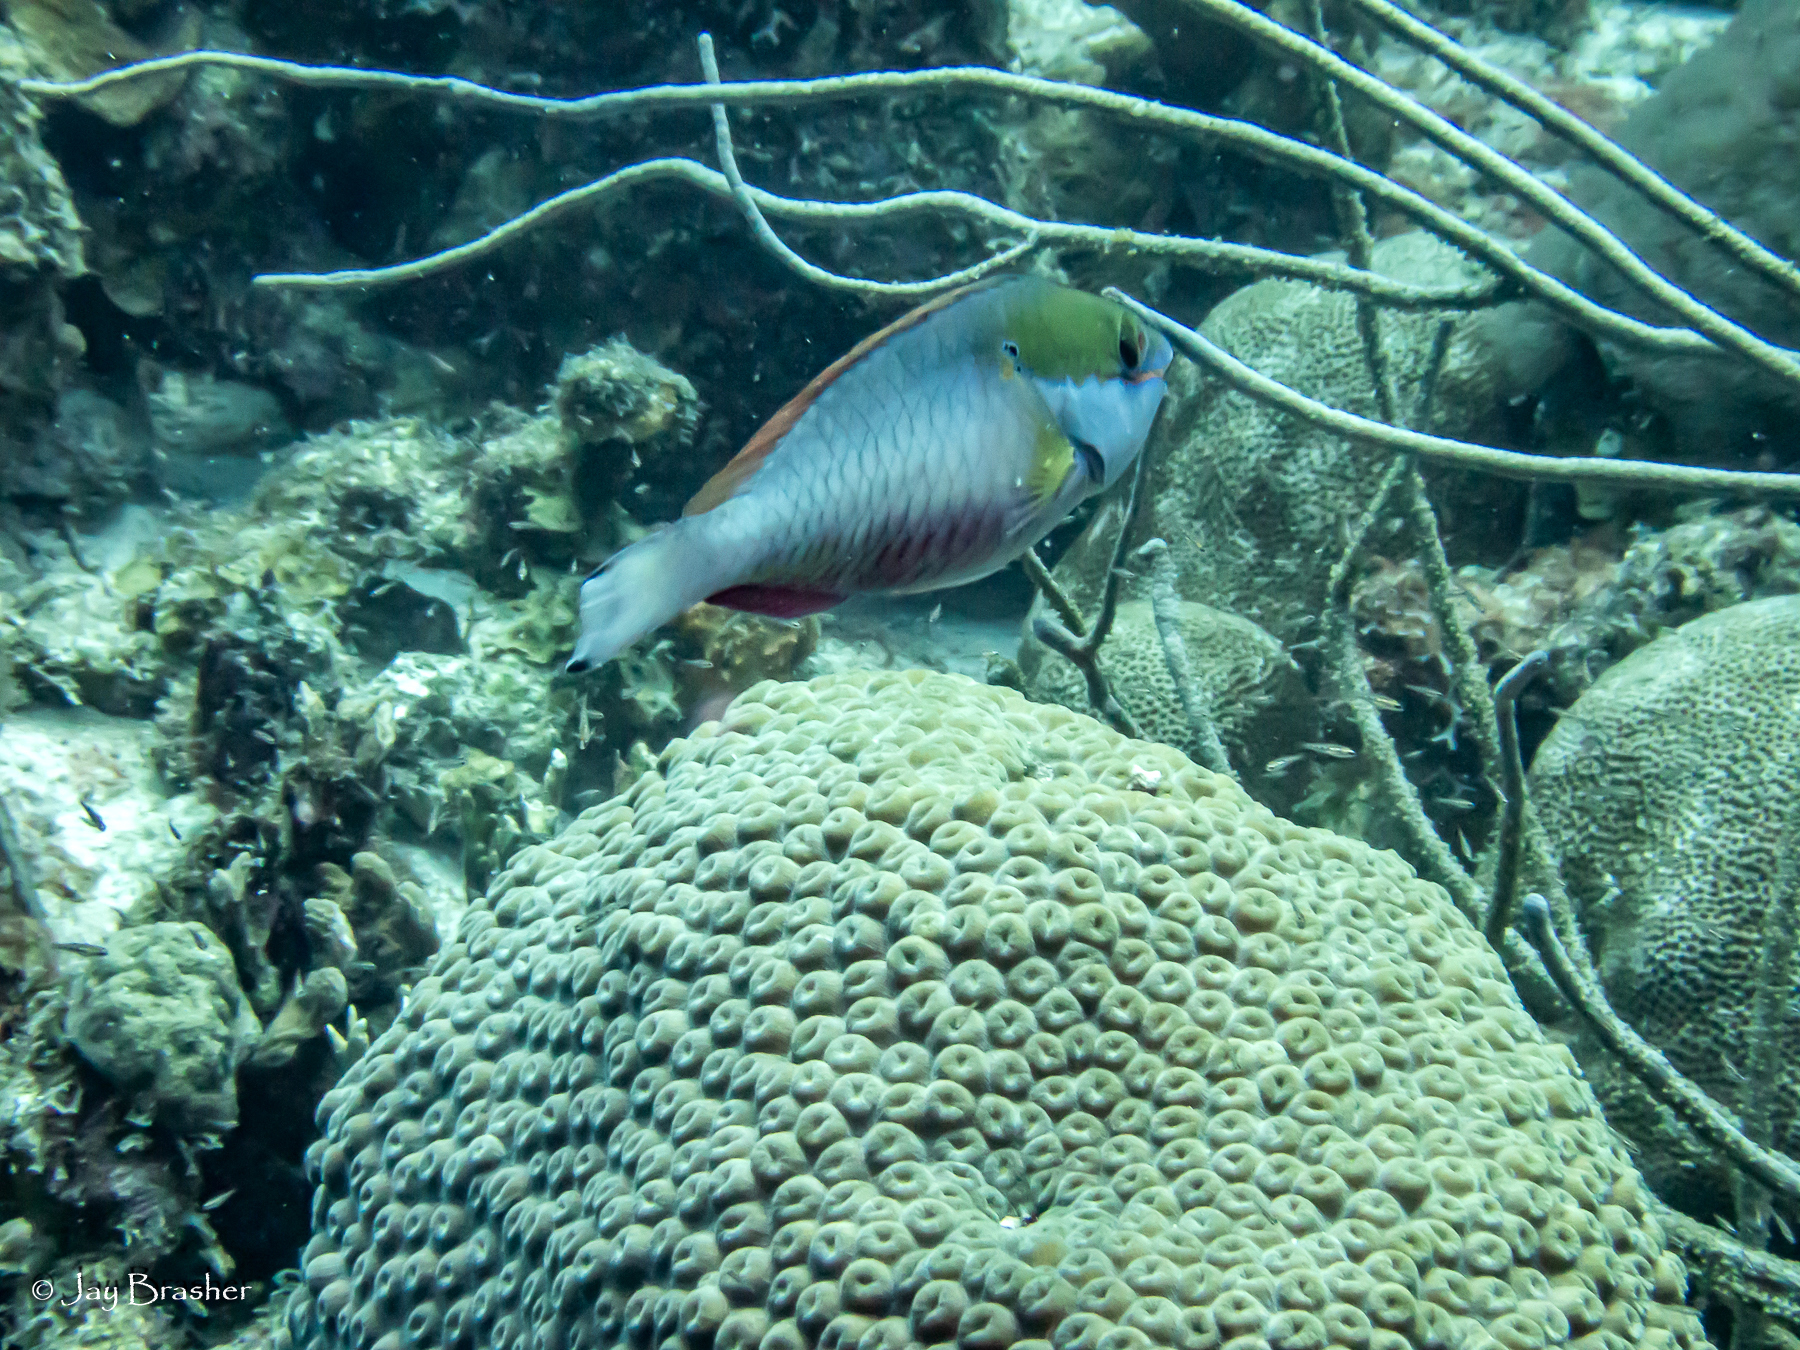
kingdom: Animalia
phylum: Cnidaria
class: Anthozoa
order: Scleractinia
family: Montastraeidae
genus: Montastraea
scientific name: Montastraea cavernosa
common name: Great star coral
